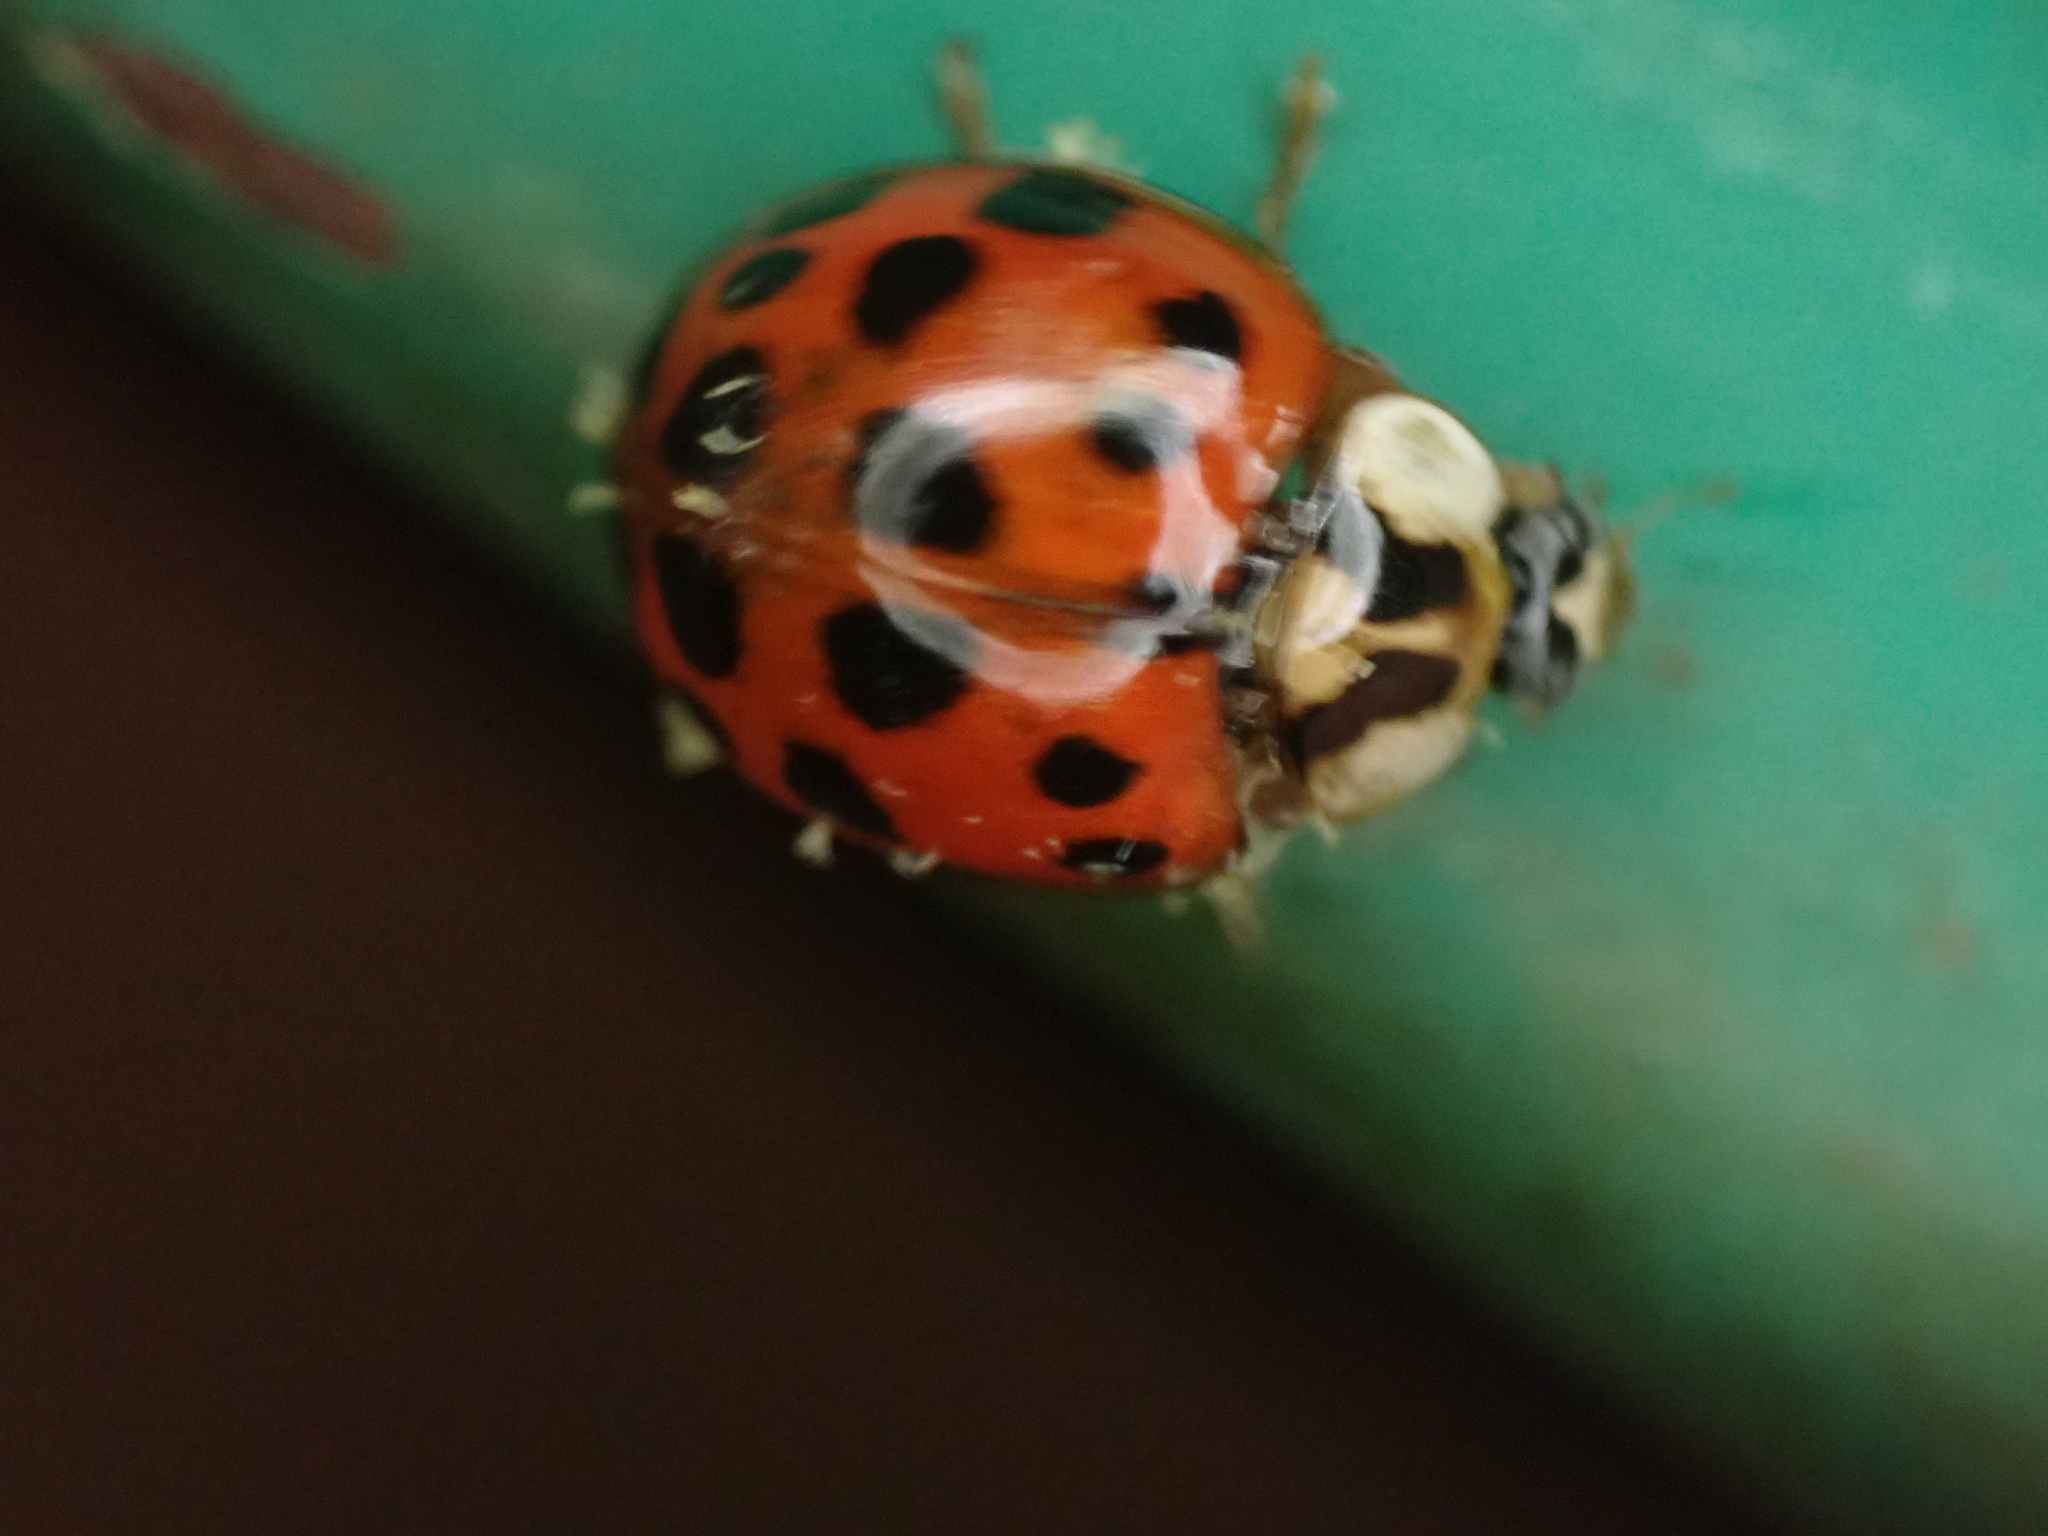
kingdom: Fungi
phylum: Ascomycota
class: Laboulbeniomycetes
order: Laboulbeniales
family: Laboulbeniaceae
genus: Hesperomyces
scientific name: Hesperomyces harmoniae
